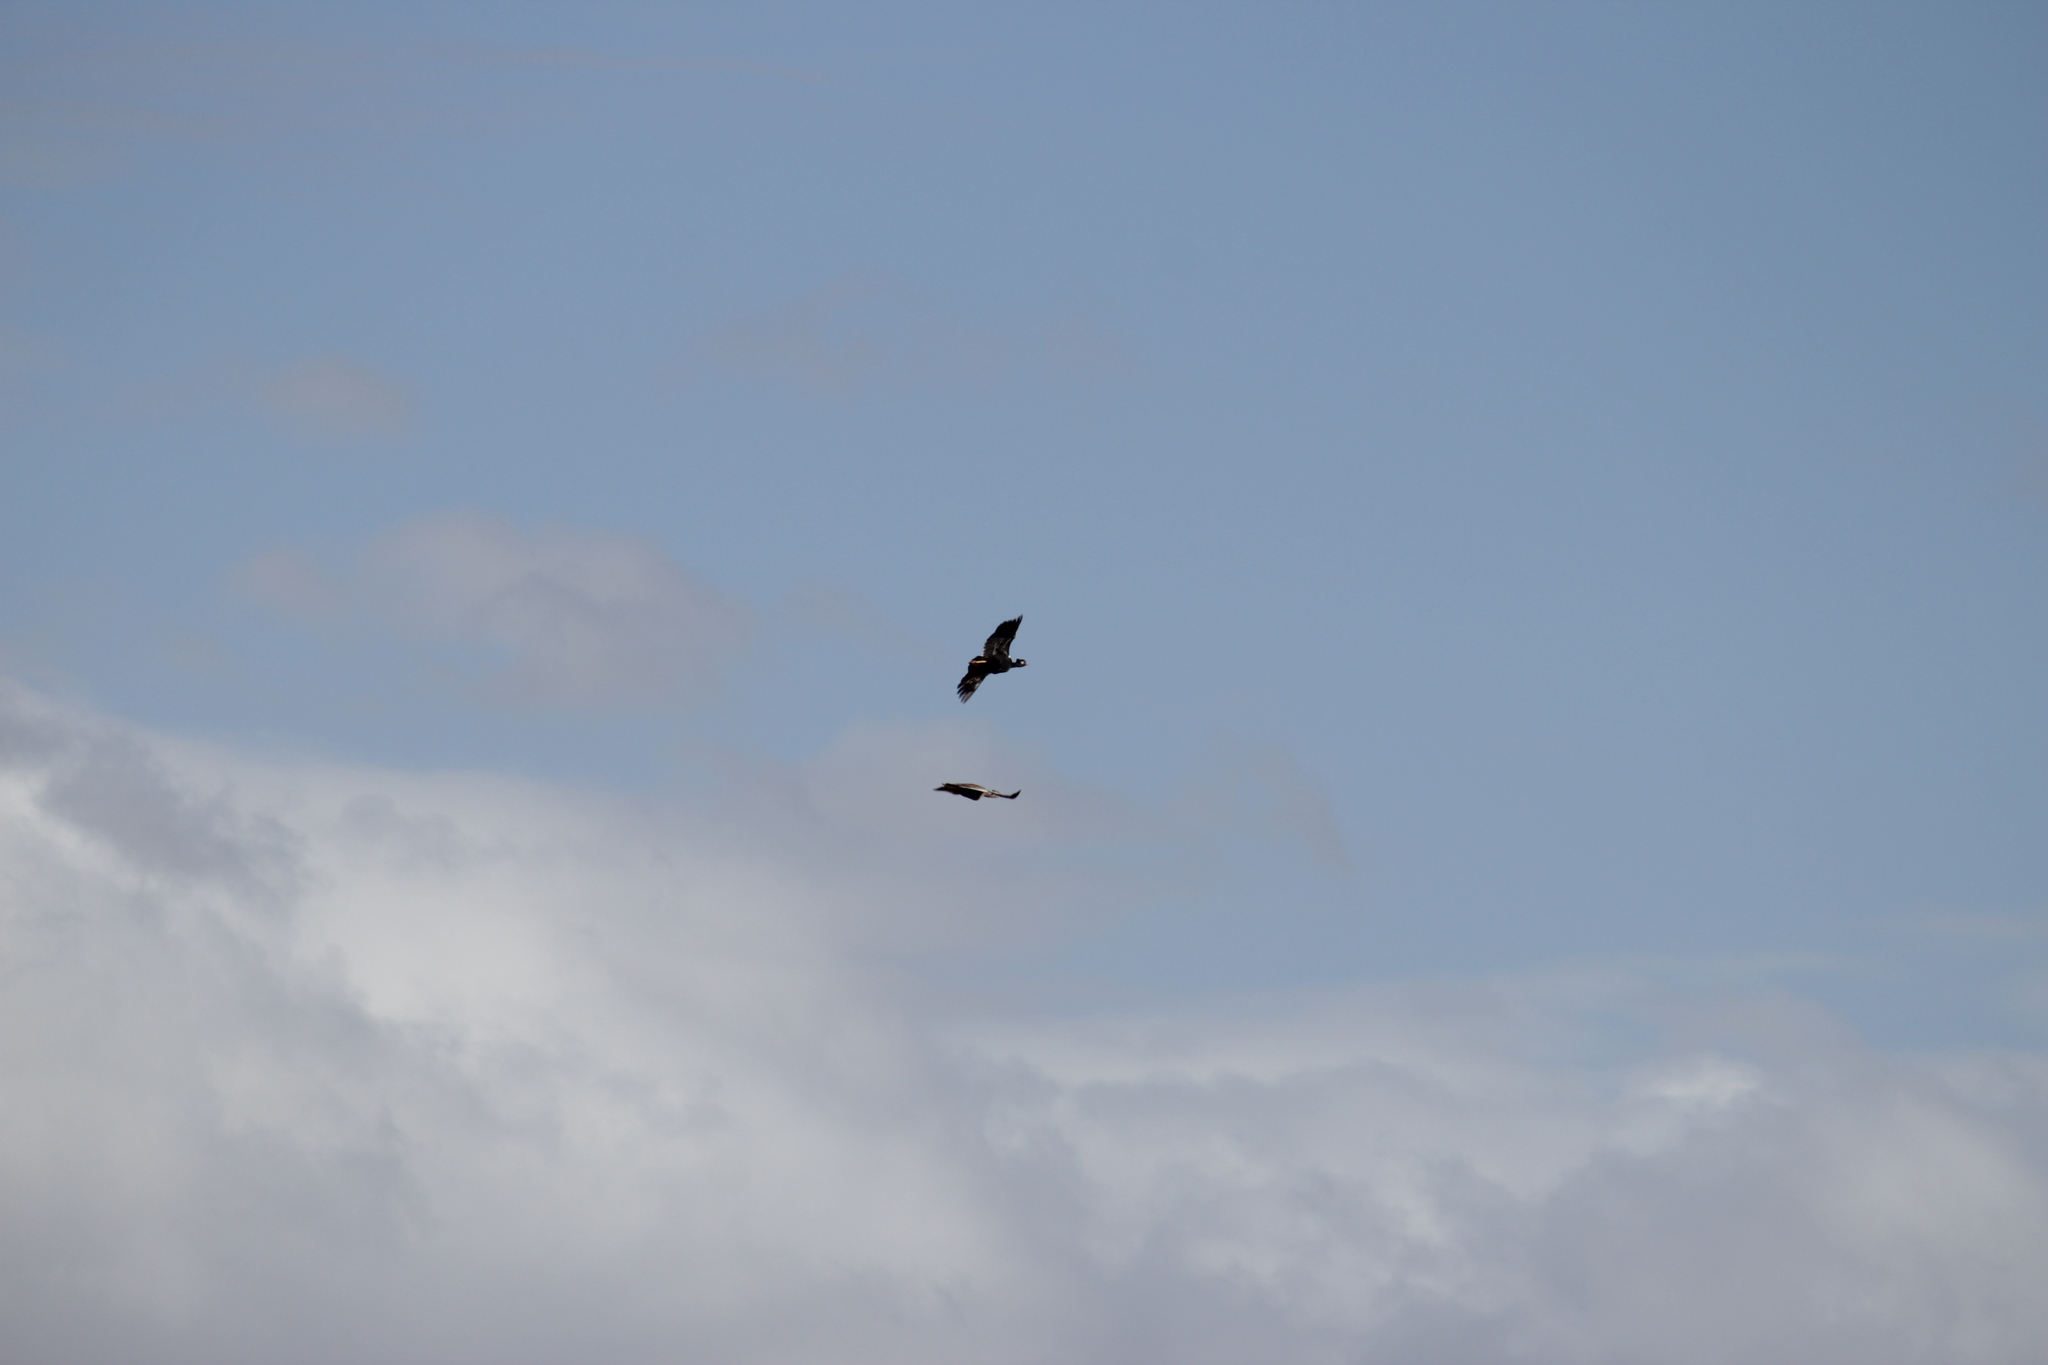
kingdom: Animalia
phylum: Chordata
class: Aves
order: Otidiformes
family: Otididae
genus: Afrotis
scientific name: Afrotis afra
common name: Southern black korhaan
